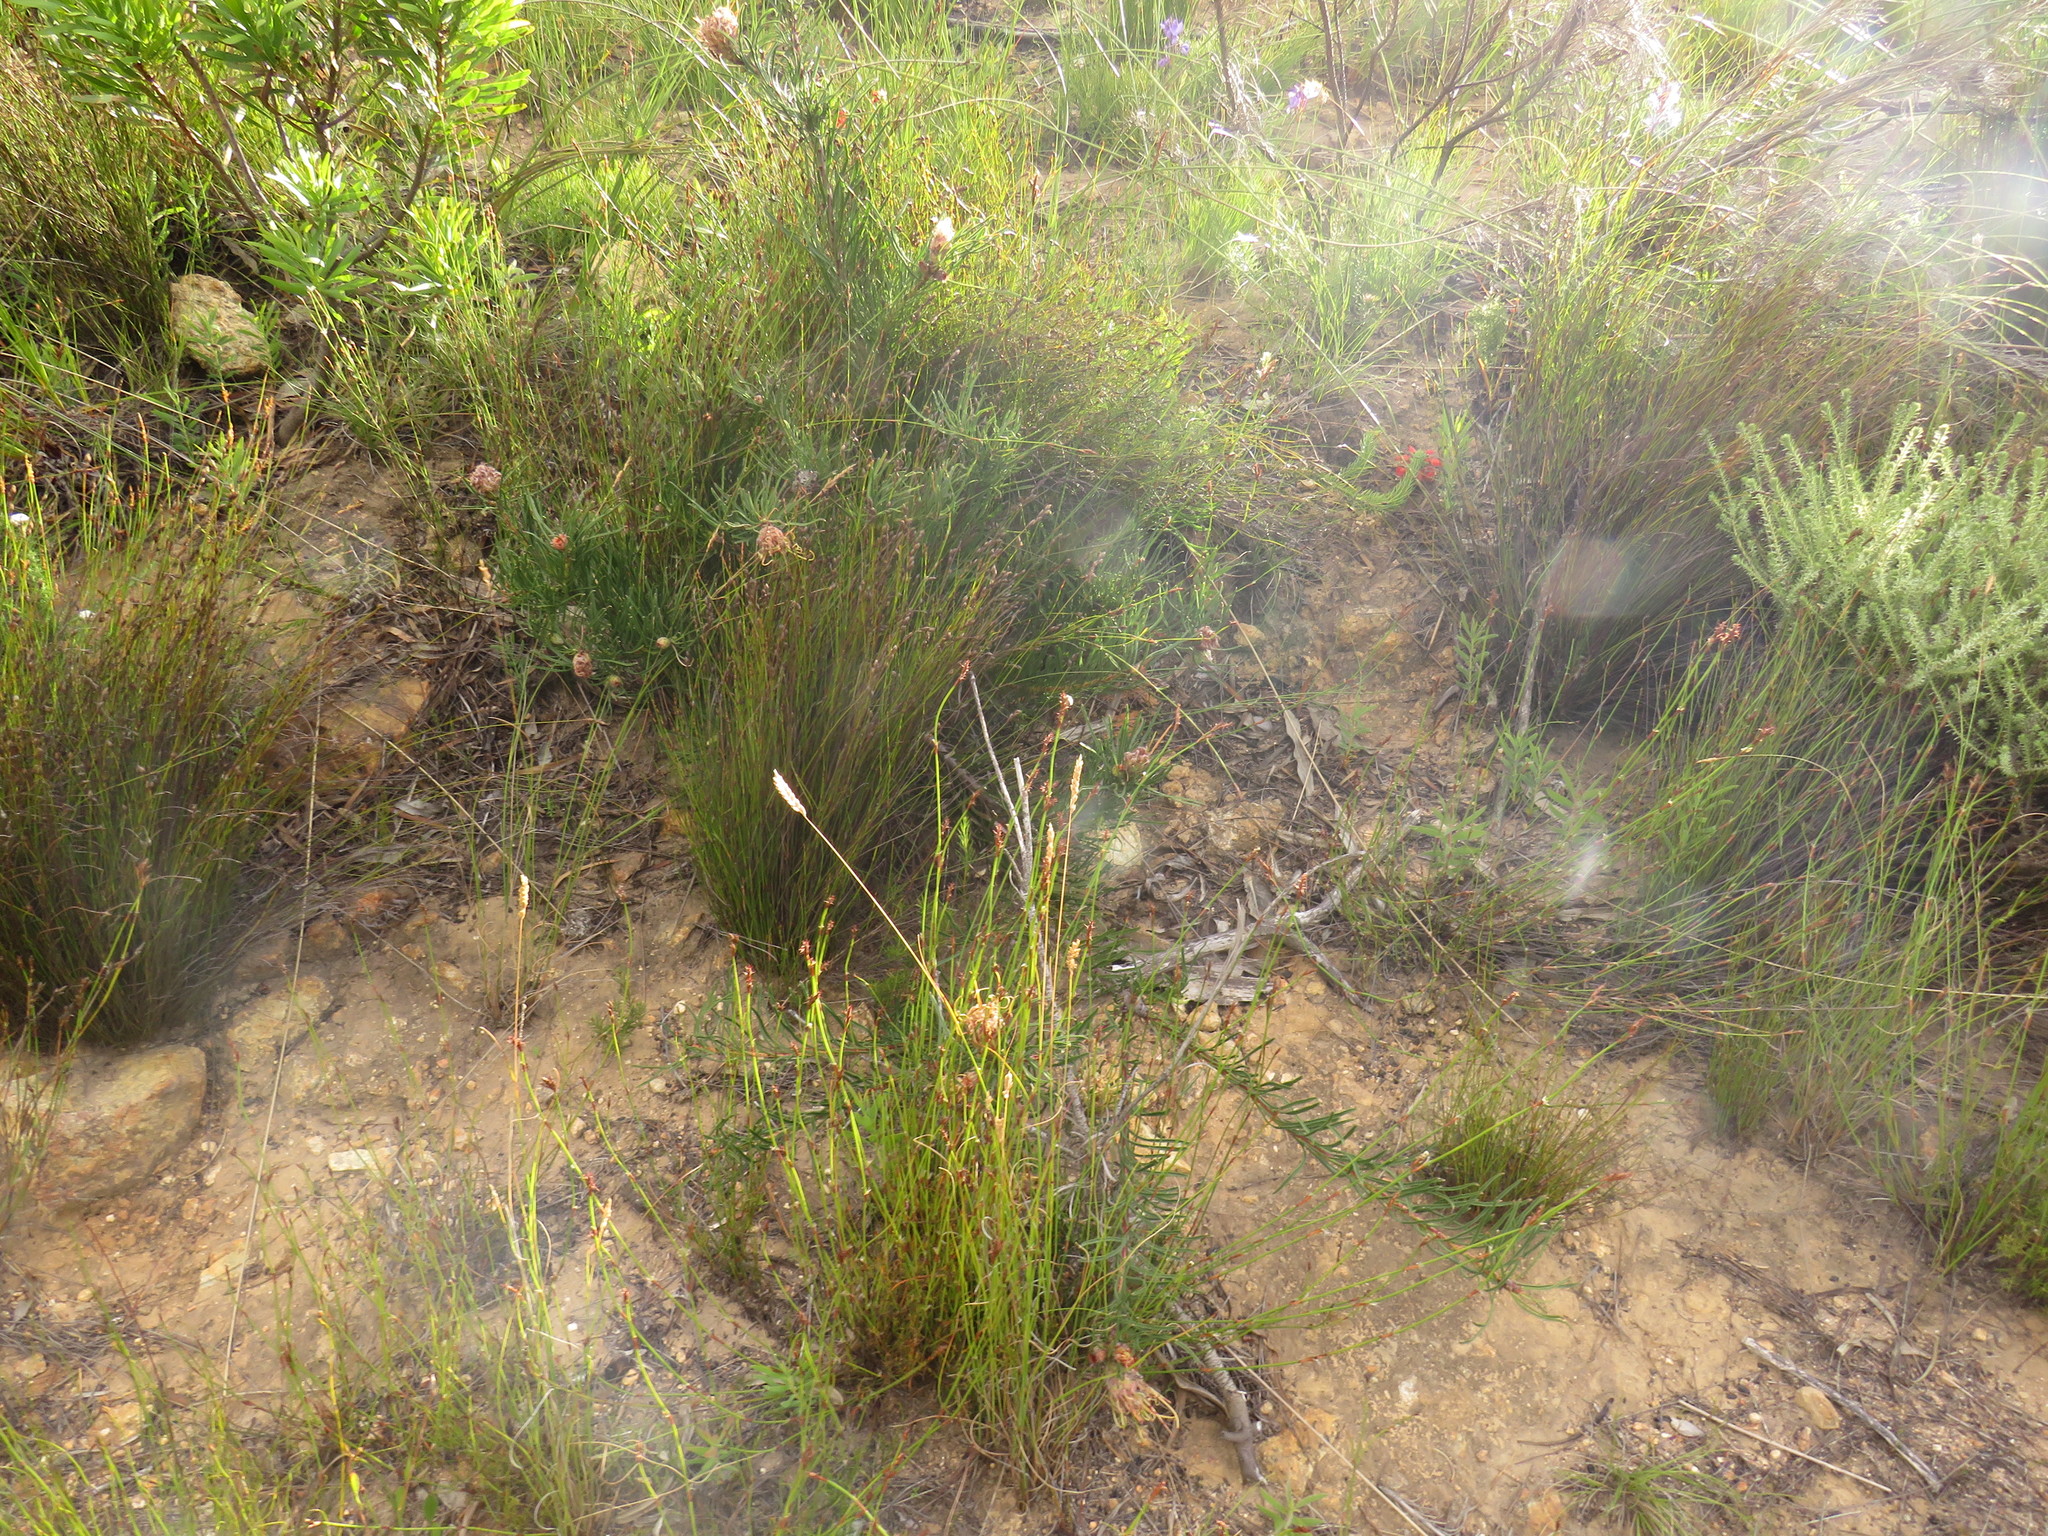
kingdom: Plantae
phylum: Tracheophyta
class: Magnoliopsida
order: Proteales
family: Proteaceae
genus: Leucospermum
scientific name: Leucospermum lineare
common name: Needle-leaf pincushion
